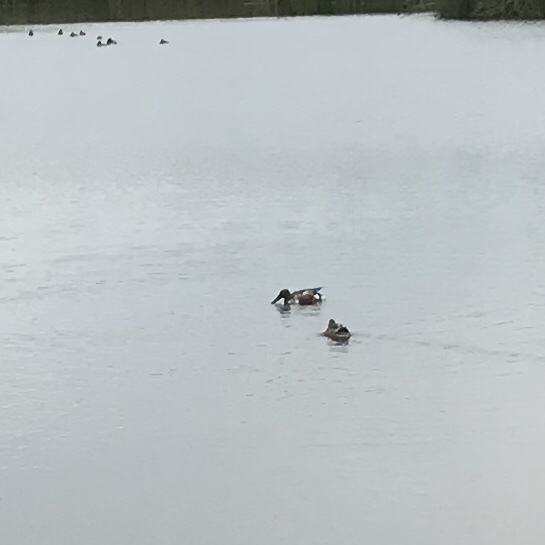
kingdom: Animalia
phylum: Chordata
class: Aves
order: Anseriformes
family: Anatidae
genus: Spatula
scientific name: Spatula clypeata
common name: Northern shoveler
